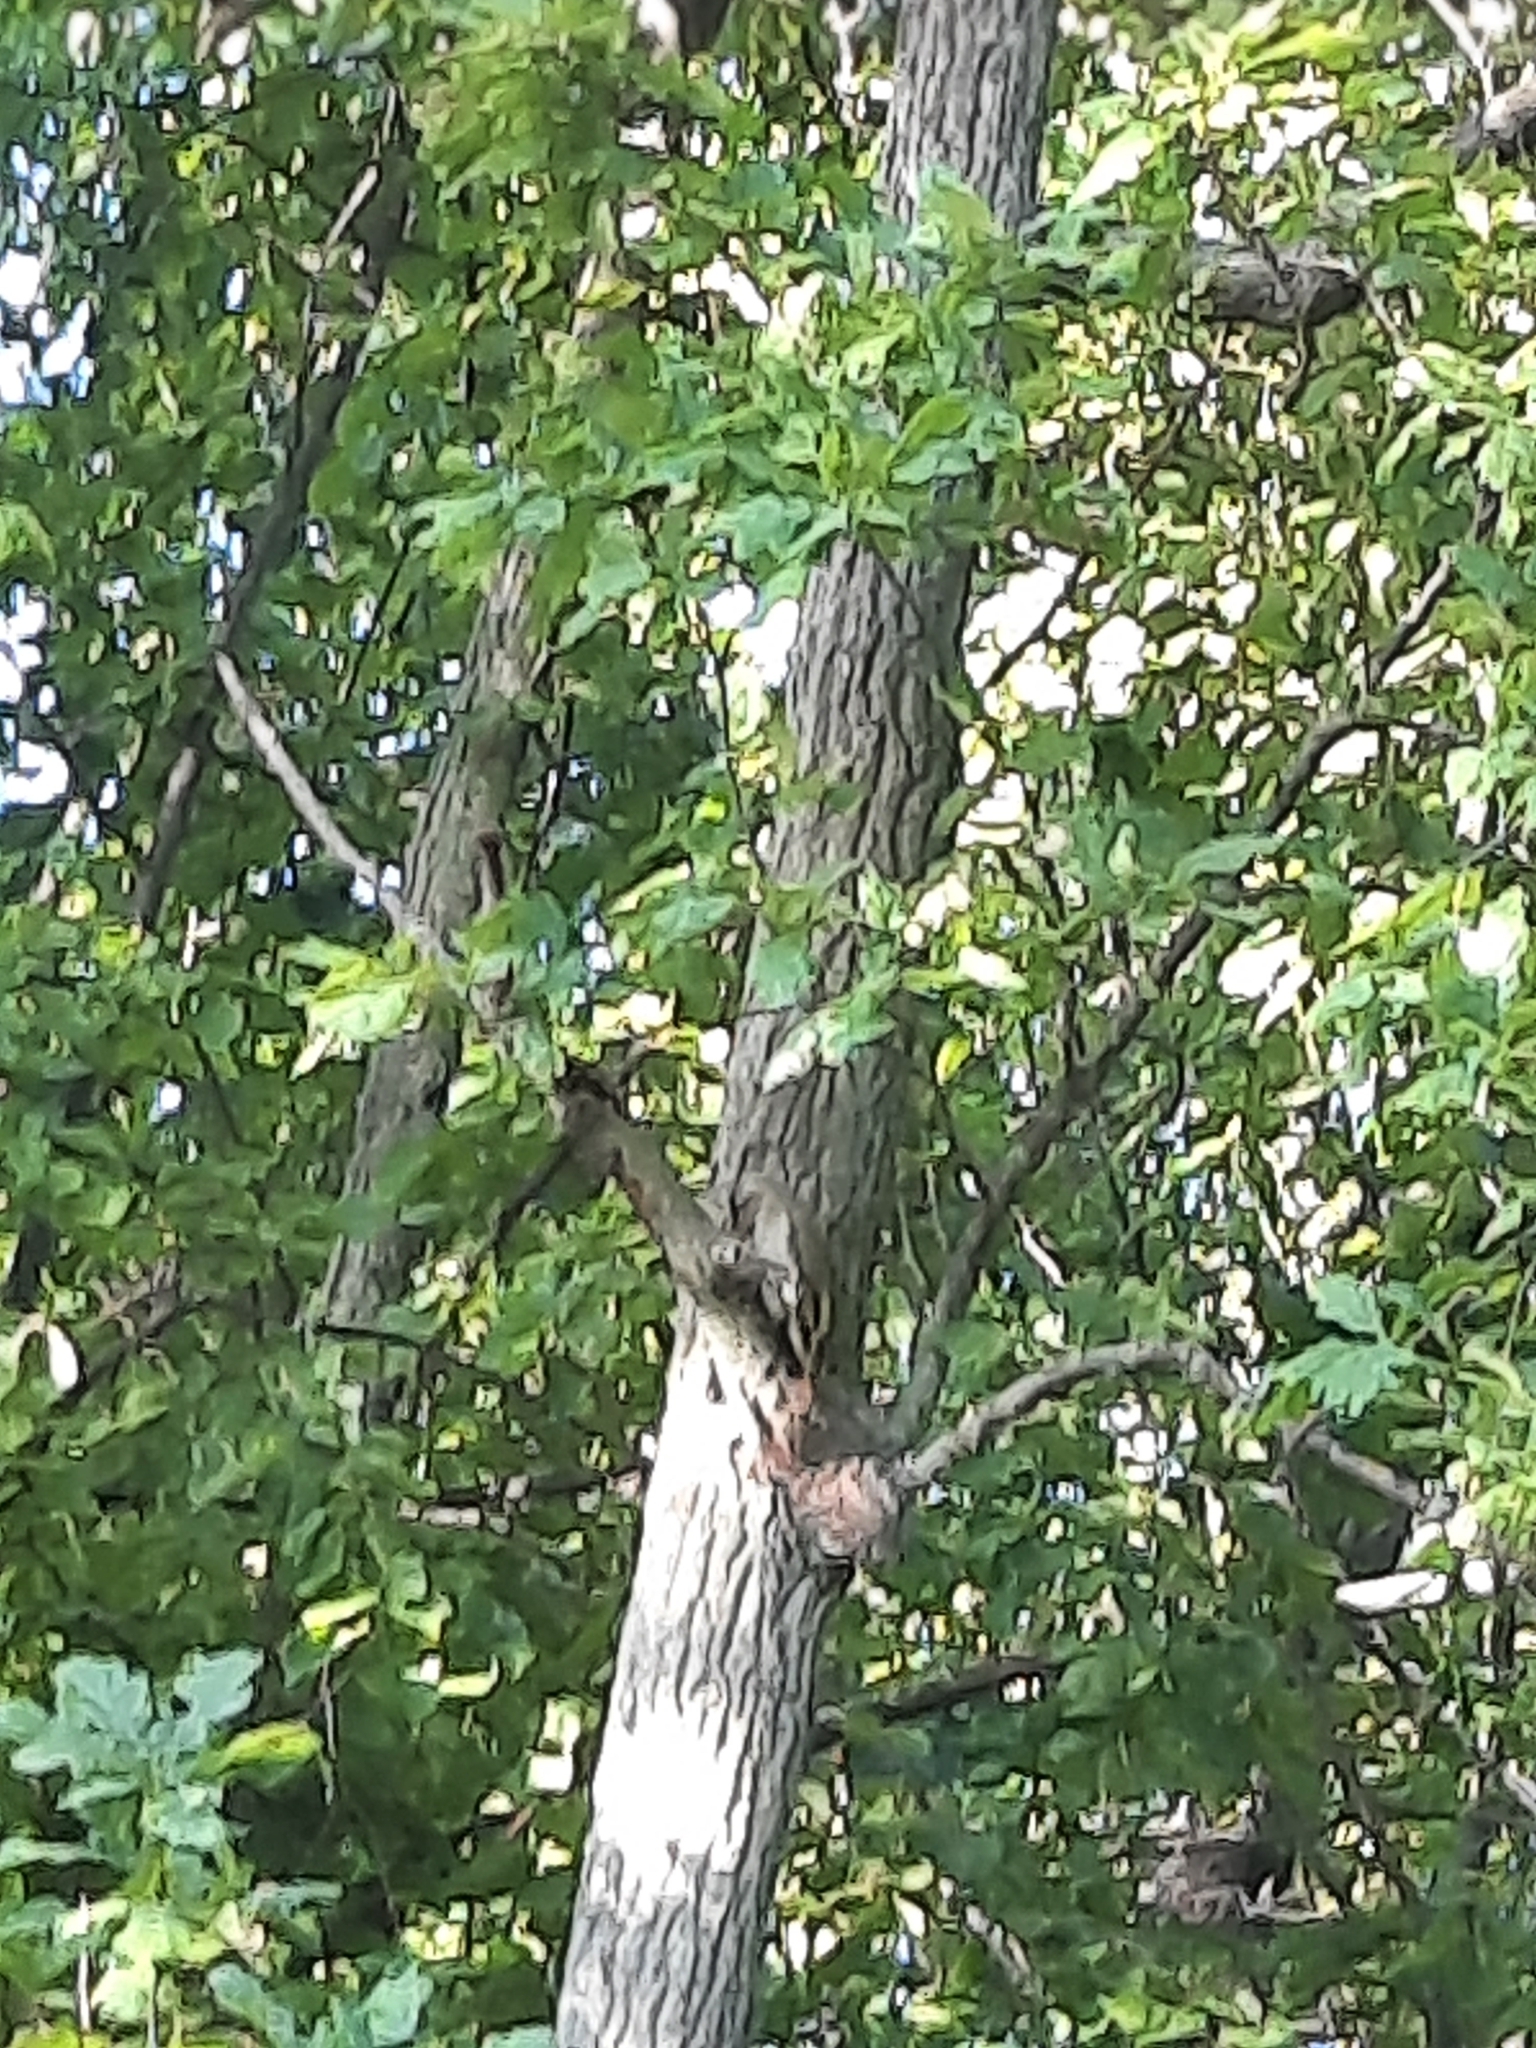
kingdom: Animalia
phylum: Chordata
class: Aves
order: Piciformes
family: Picidae
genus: Picus
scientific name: Picus canus
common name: Grey-headed woodpecker
